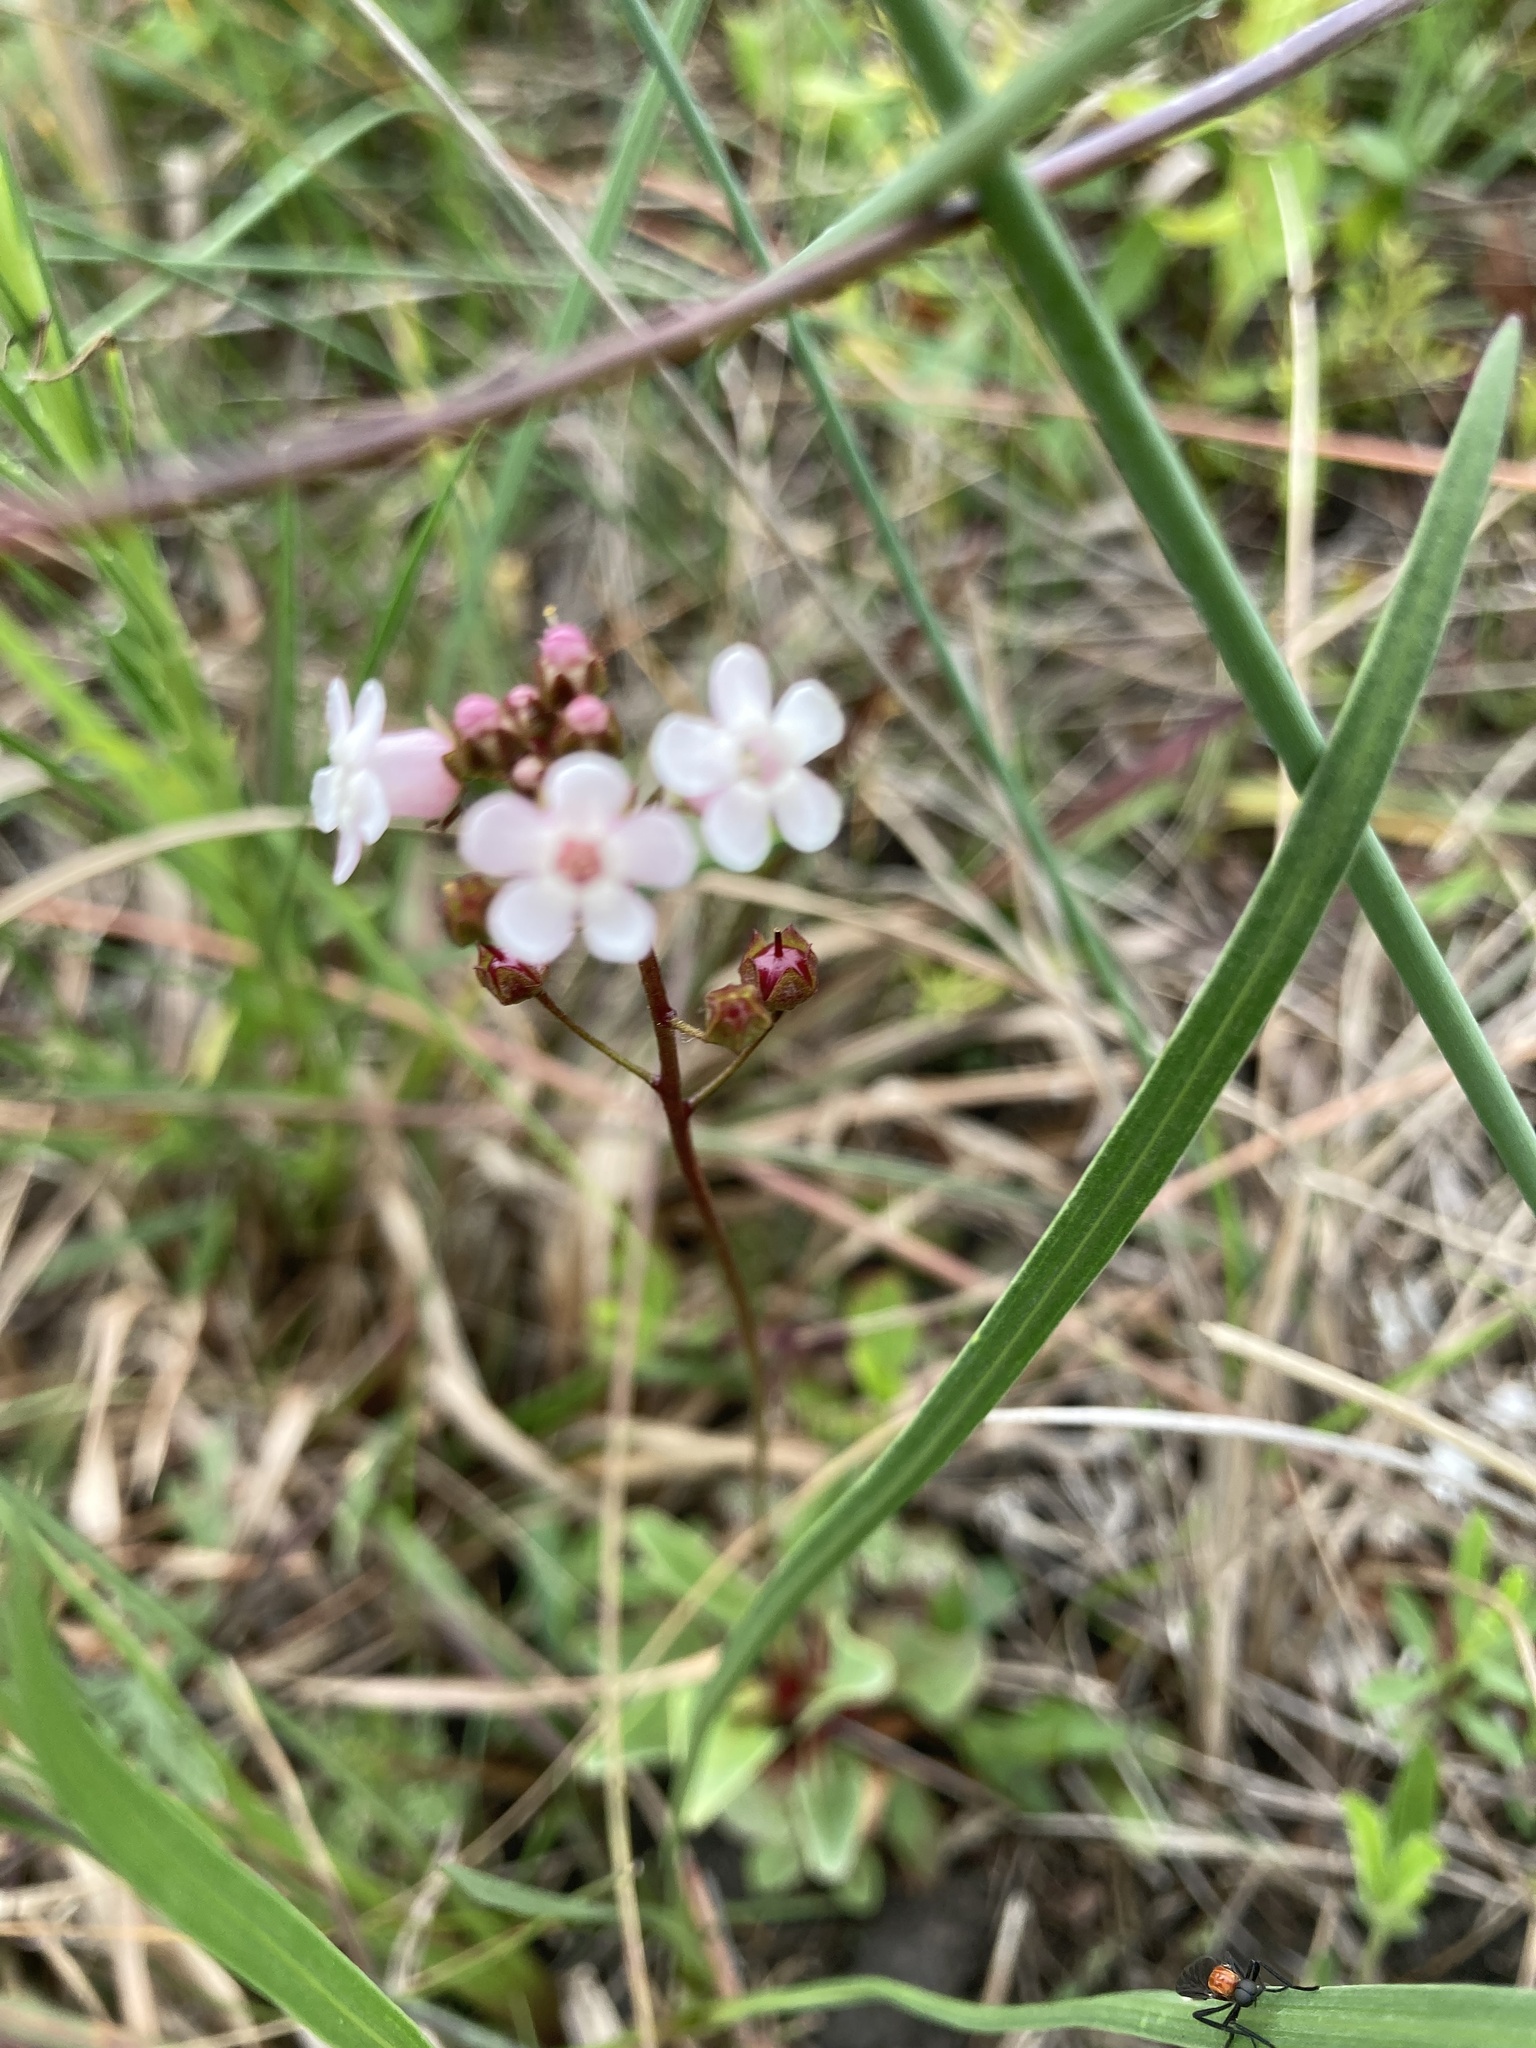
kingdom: Plantae
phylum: Tracheophyta
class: Magnoliopsida
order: Ericales
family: Primulaceae
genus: Samolus
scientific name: Samolus ebracteatus
